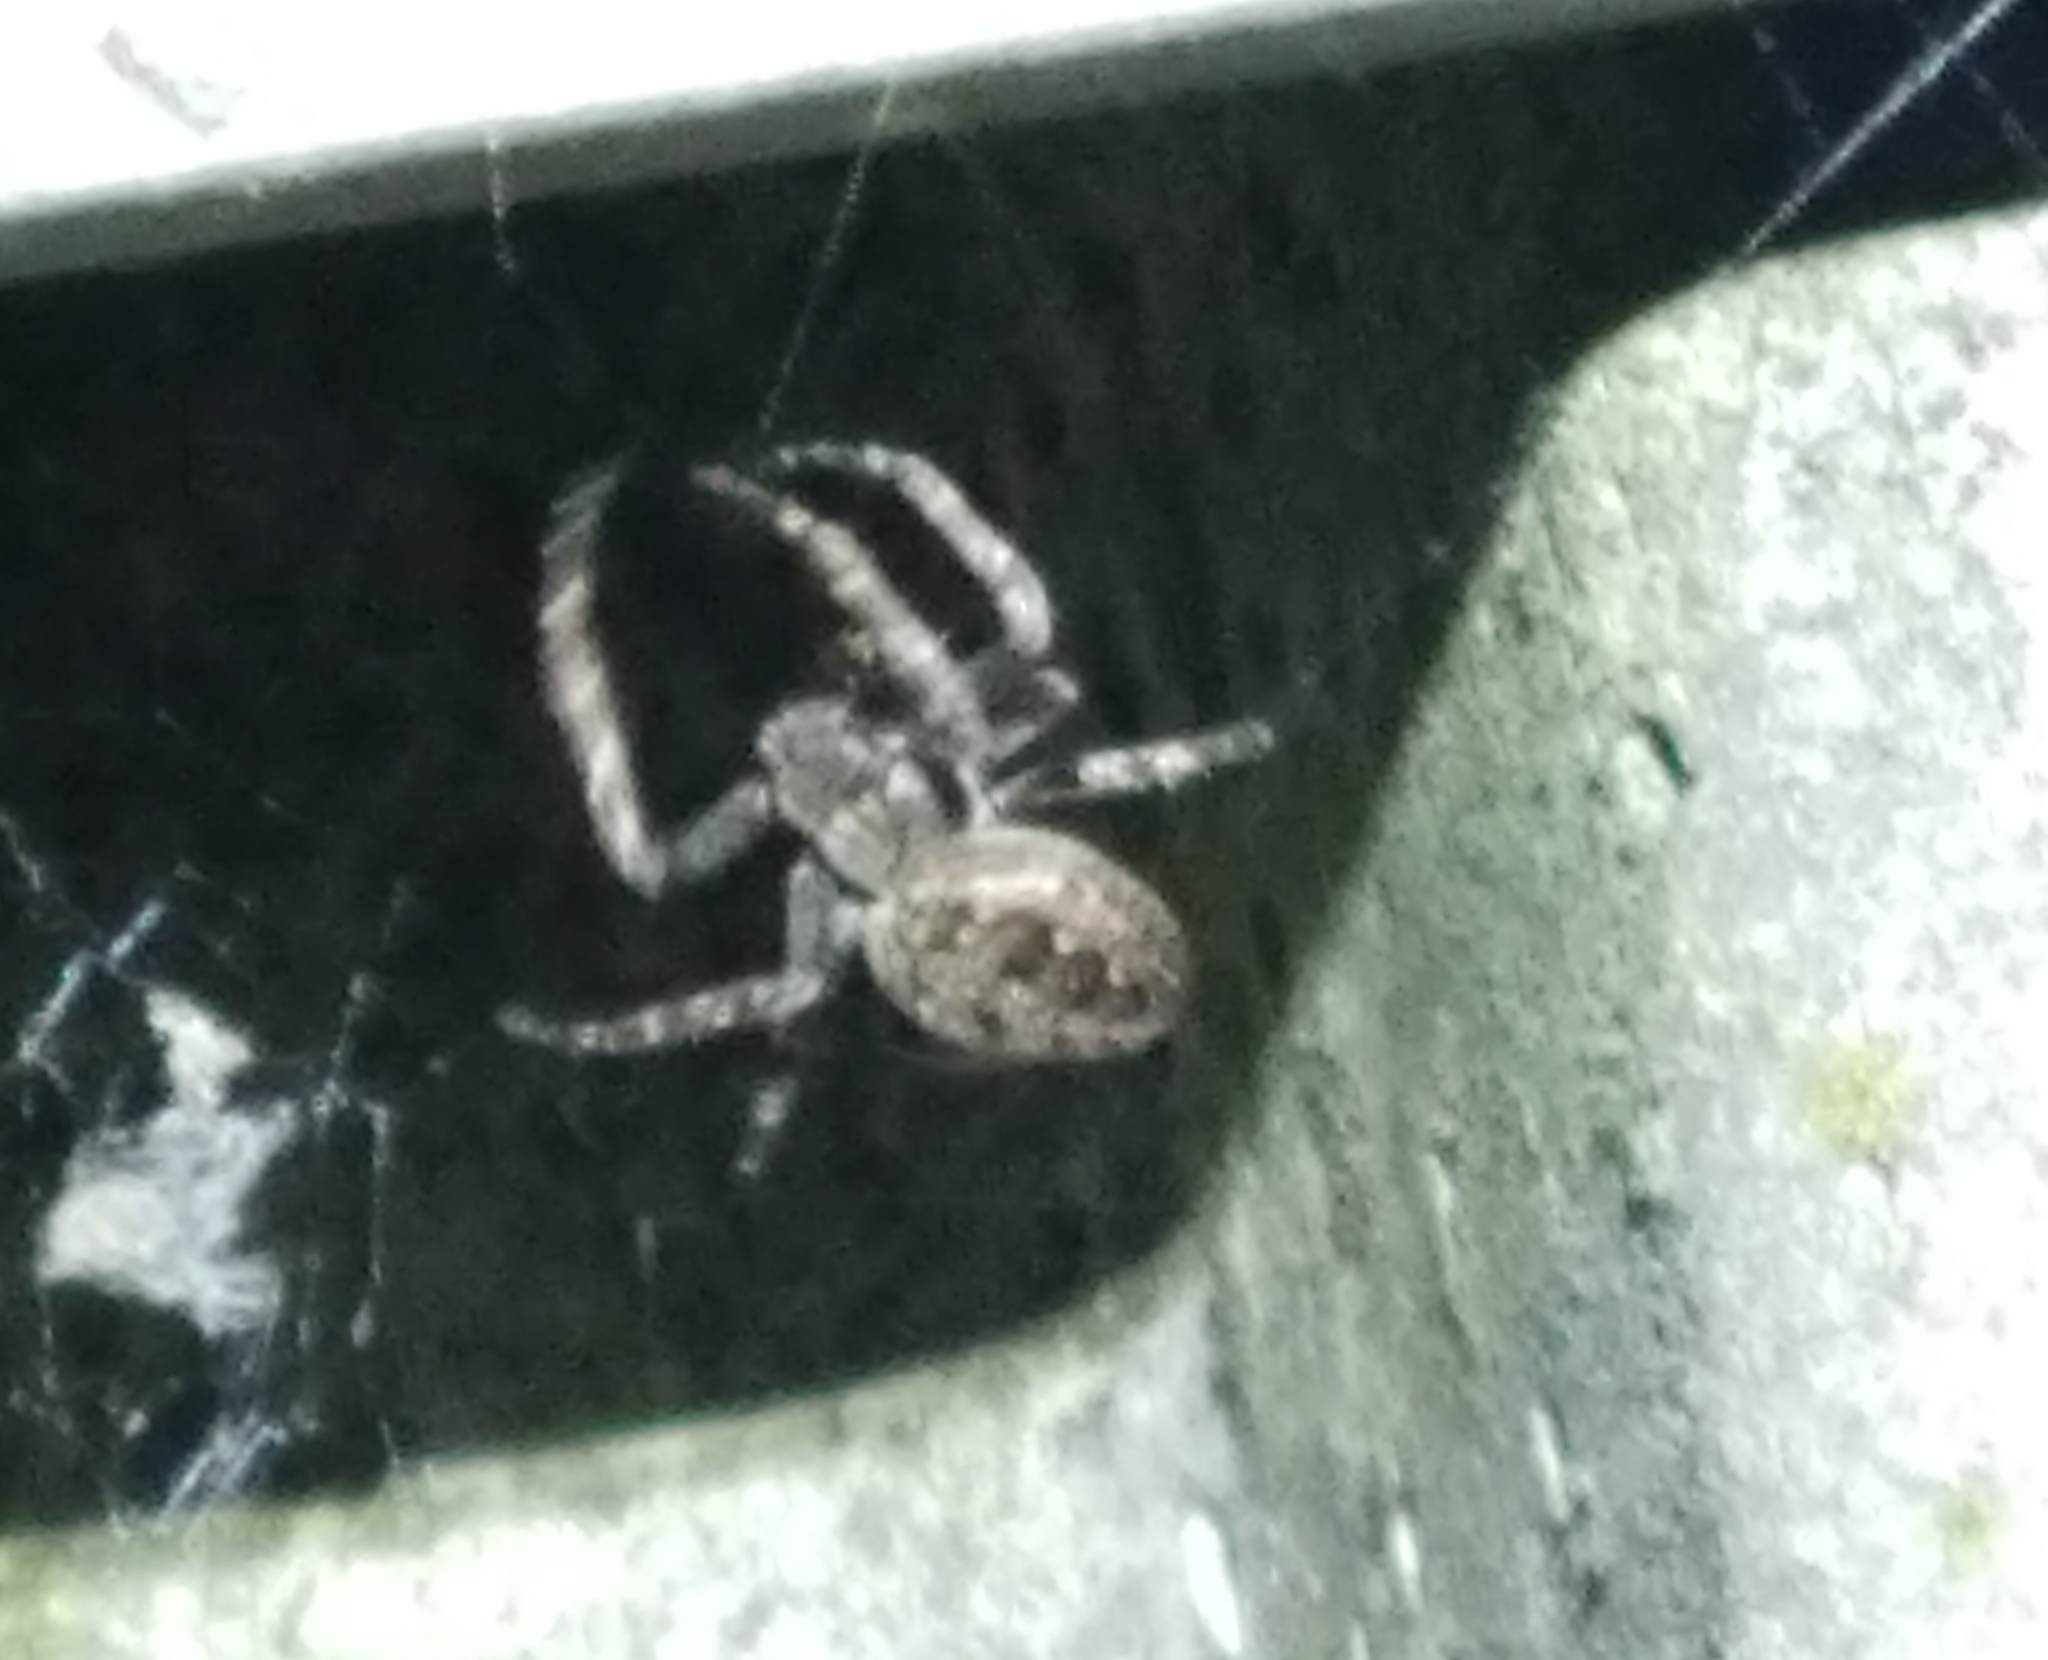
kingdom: Animalia
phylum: Arthropoda
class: Arachnida
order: Araneae
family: Araneidae
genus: Nuctenea
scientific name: Nuctenea umbratica
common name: Toad spider
